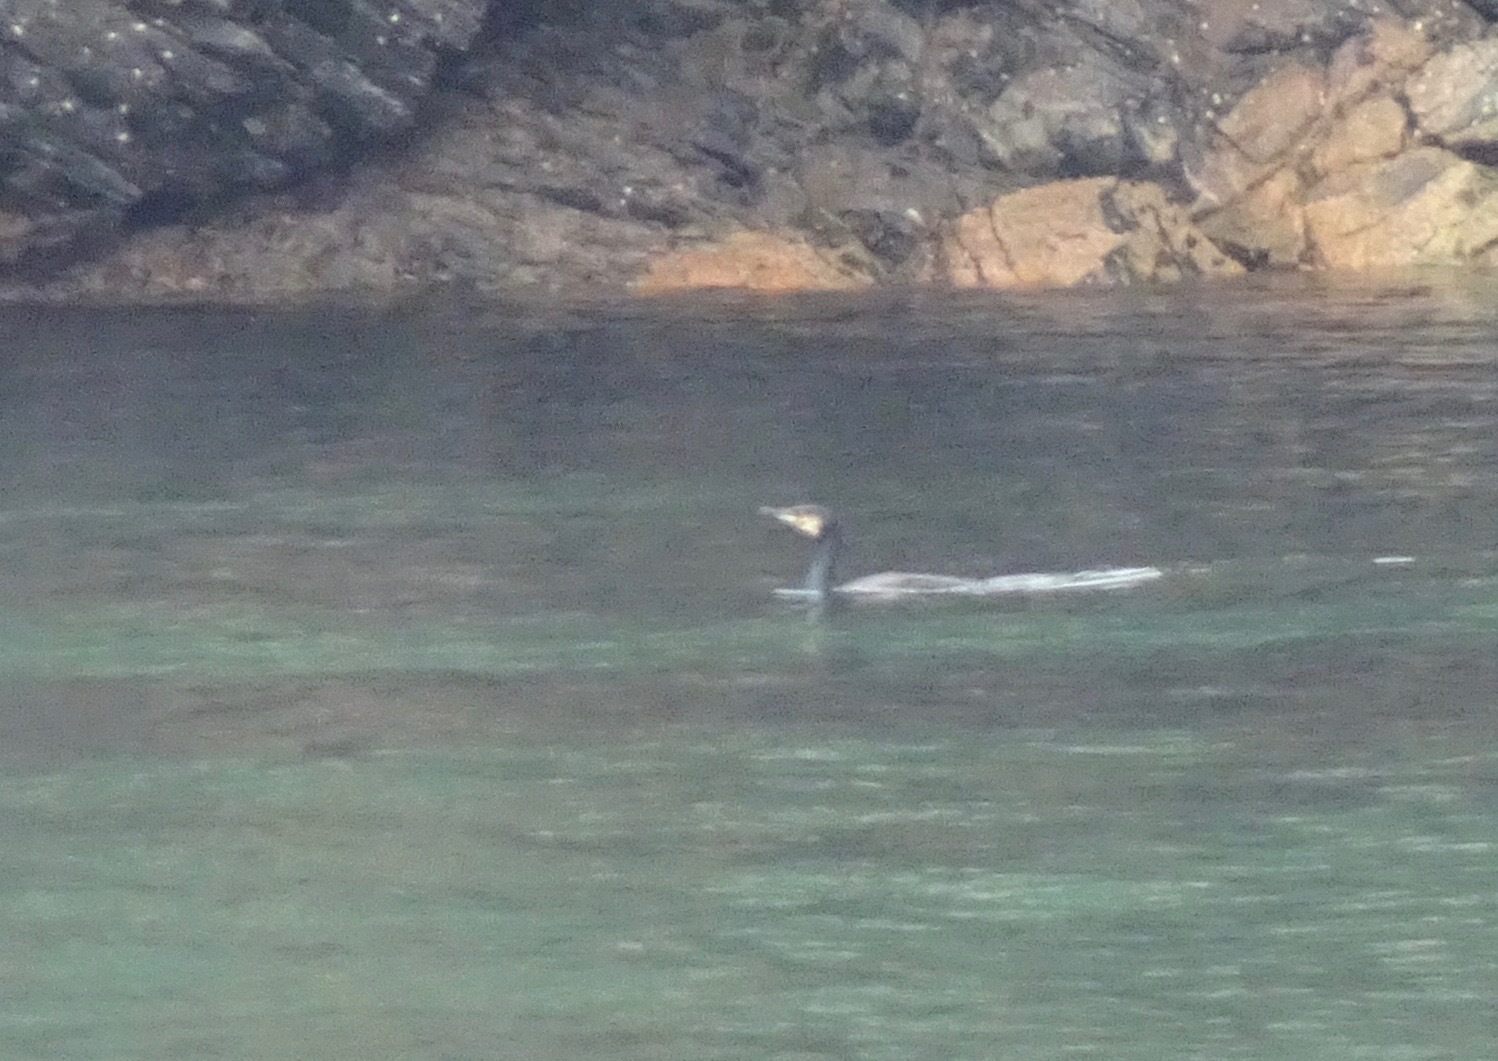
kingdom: Animalia
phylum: Chordata
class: Aves
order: Suliformes
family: Phalacrocoracidae
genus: Phalacrocorax
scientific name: Phalacrocorax carbo
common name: Great cormorant
